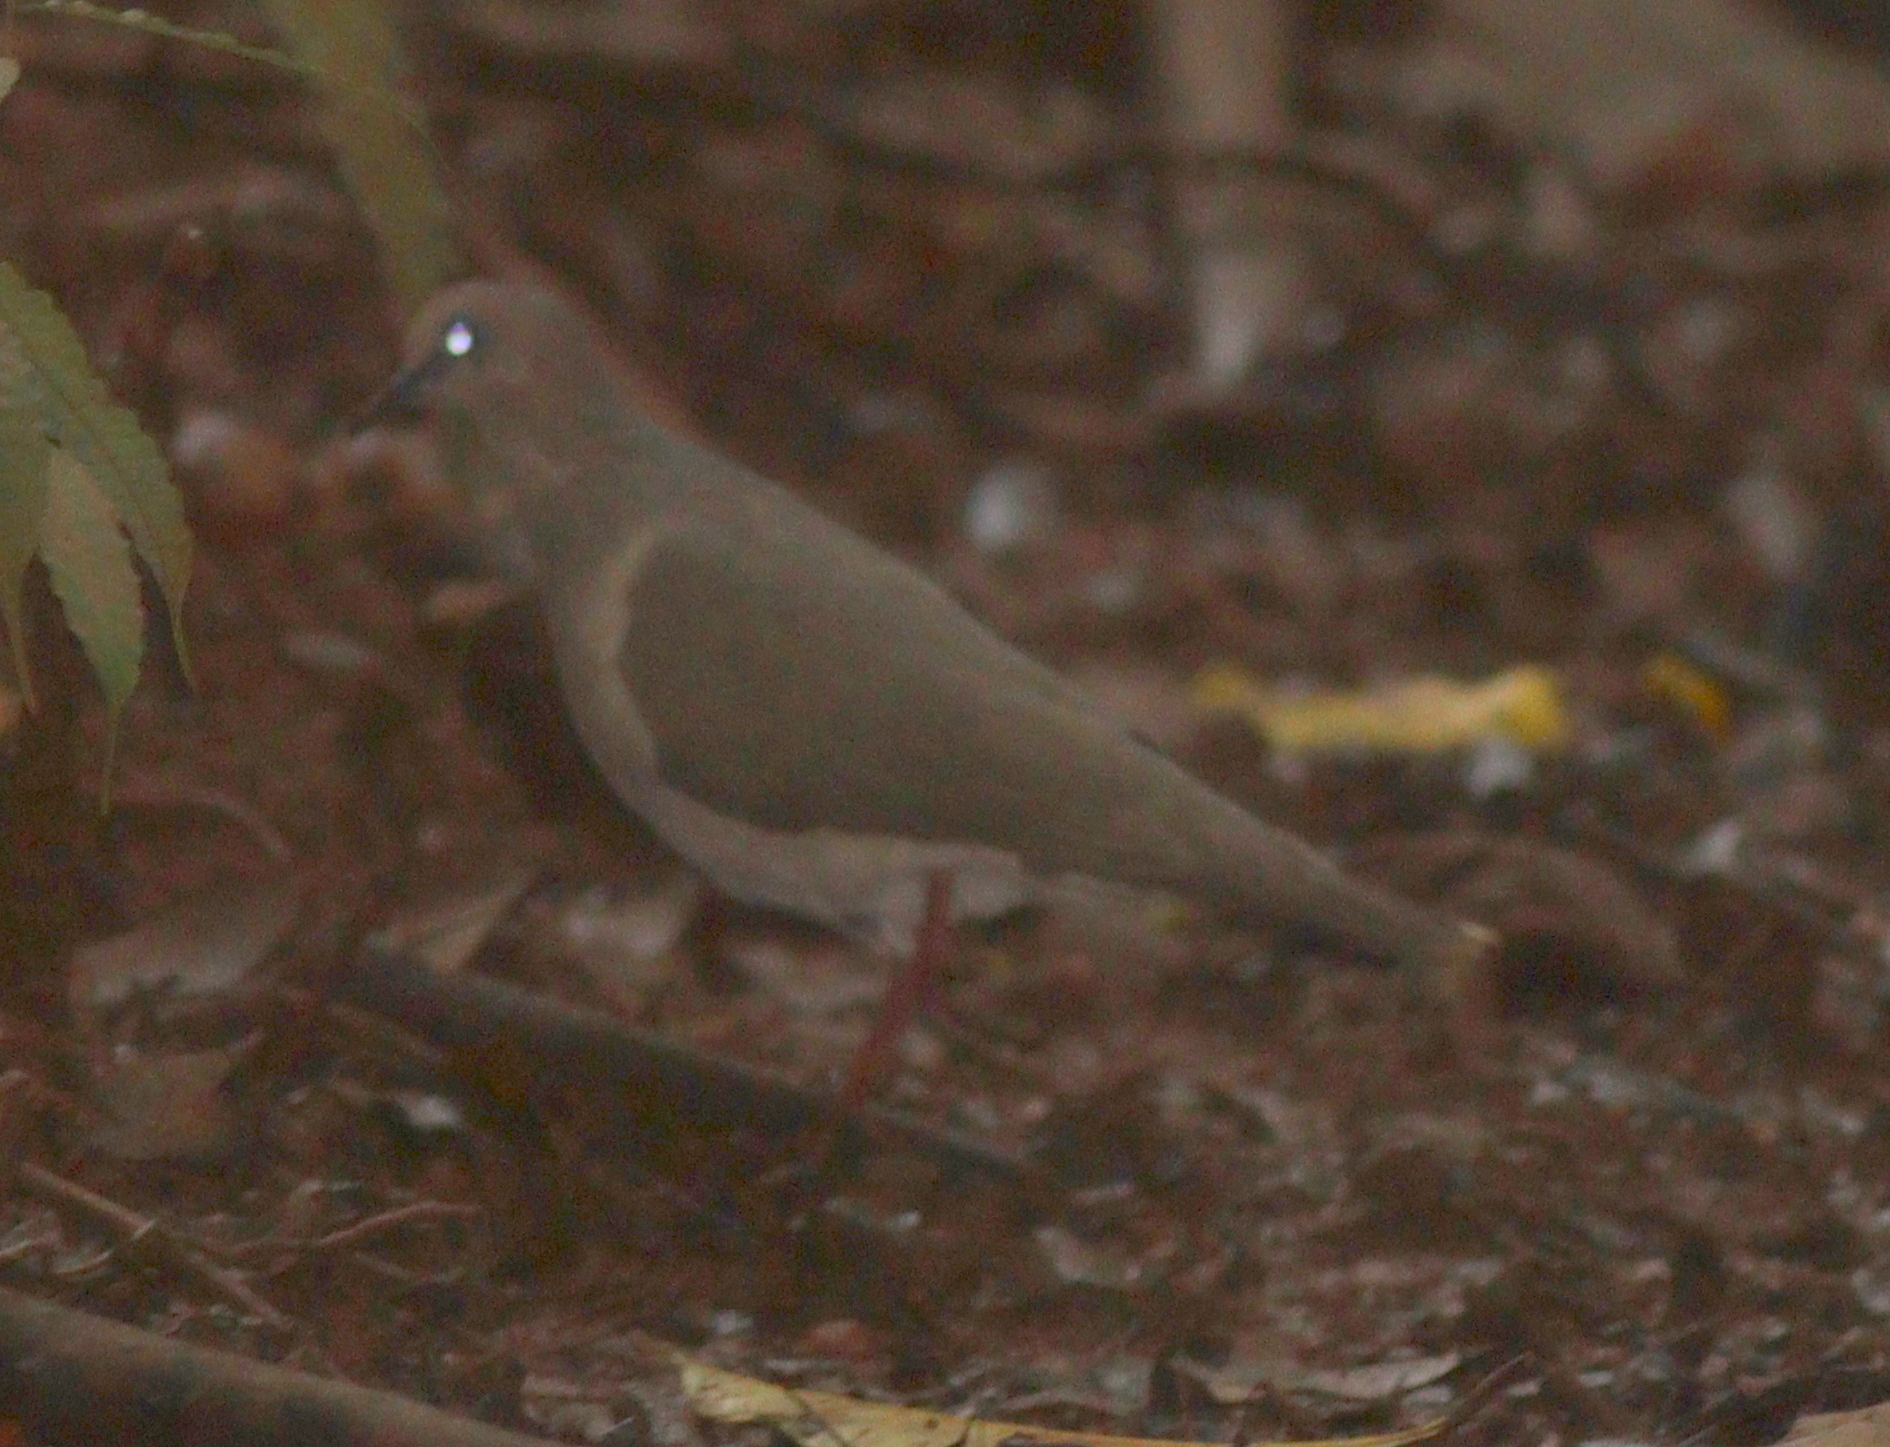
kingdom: Animalia
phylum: Chordata
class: Aves
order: Columbiformes
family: Columbidae
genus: Leptotila
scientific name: Leptotila verreauxi
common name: White-tipped dove
